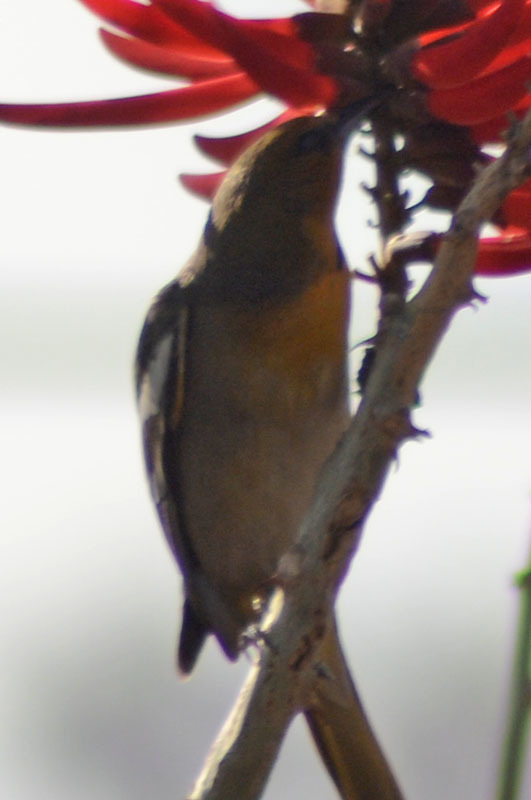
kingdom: Animalia
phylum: Chordata
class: Aves
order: Passeriformes
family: Icteridae
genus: Icterus
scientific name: Icterus abeillei
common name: Black-backed oriole
